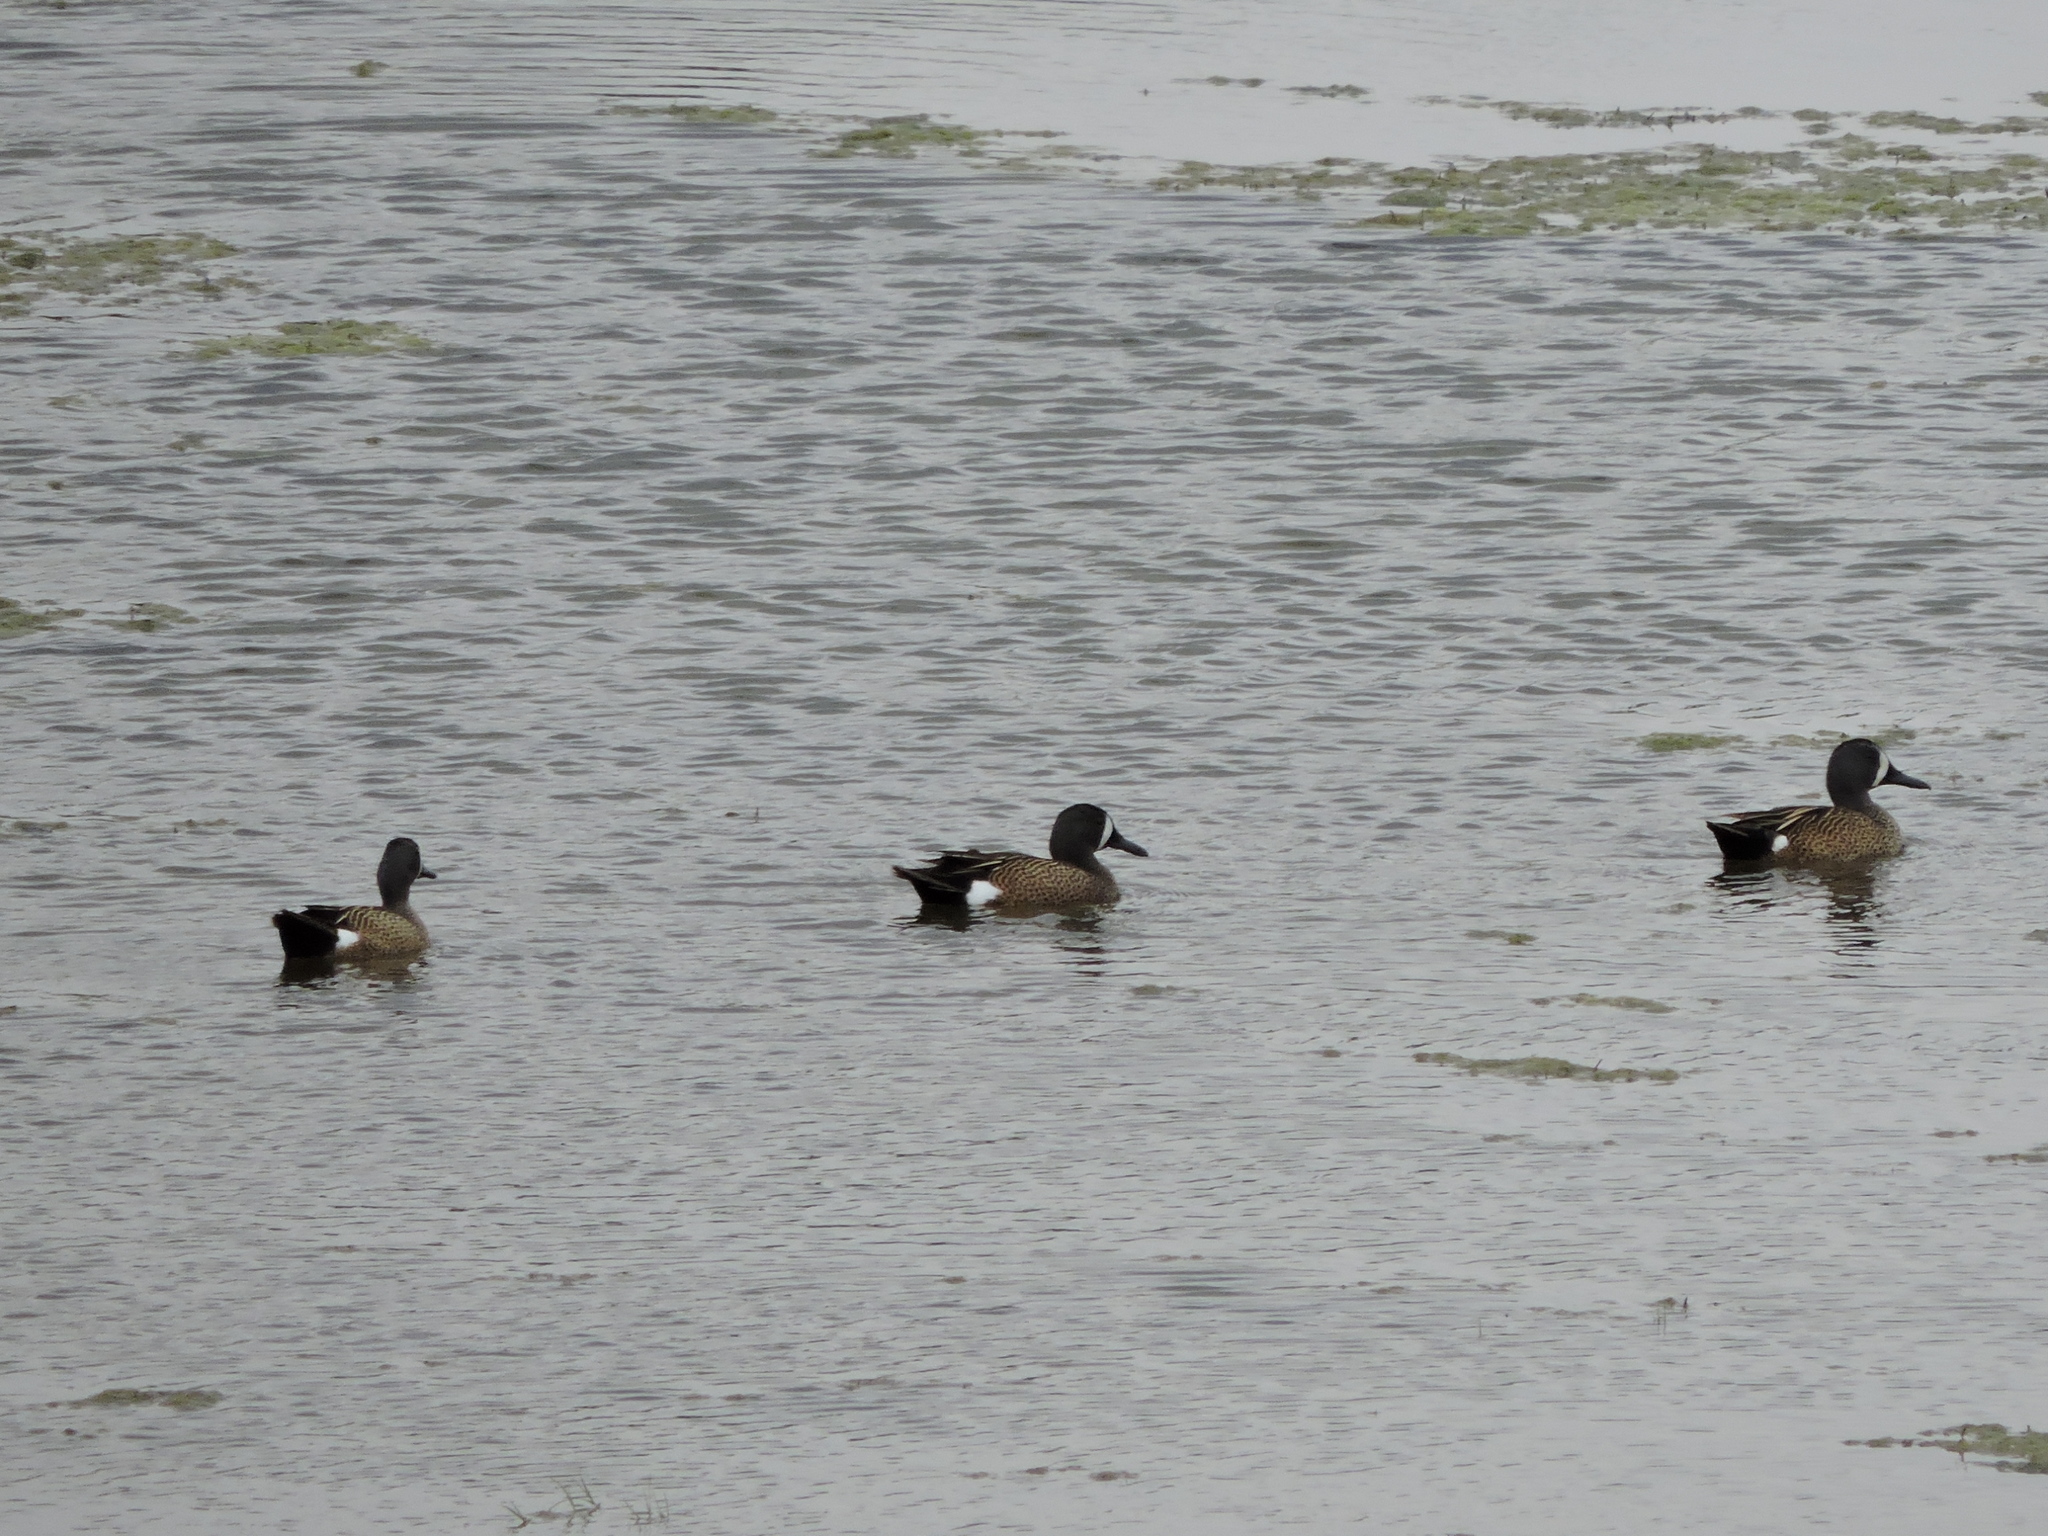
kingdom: Animalia
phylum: Chordata
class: Aves
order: Anseriformes
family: Anatidae
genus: Spatula
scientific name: Spatula discors
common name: Blue-winged teal
